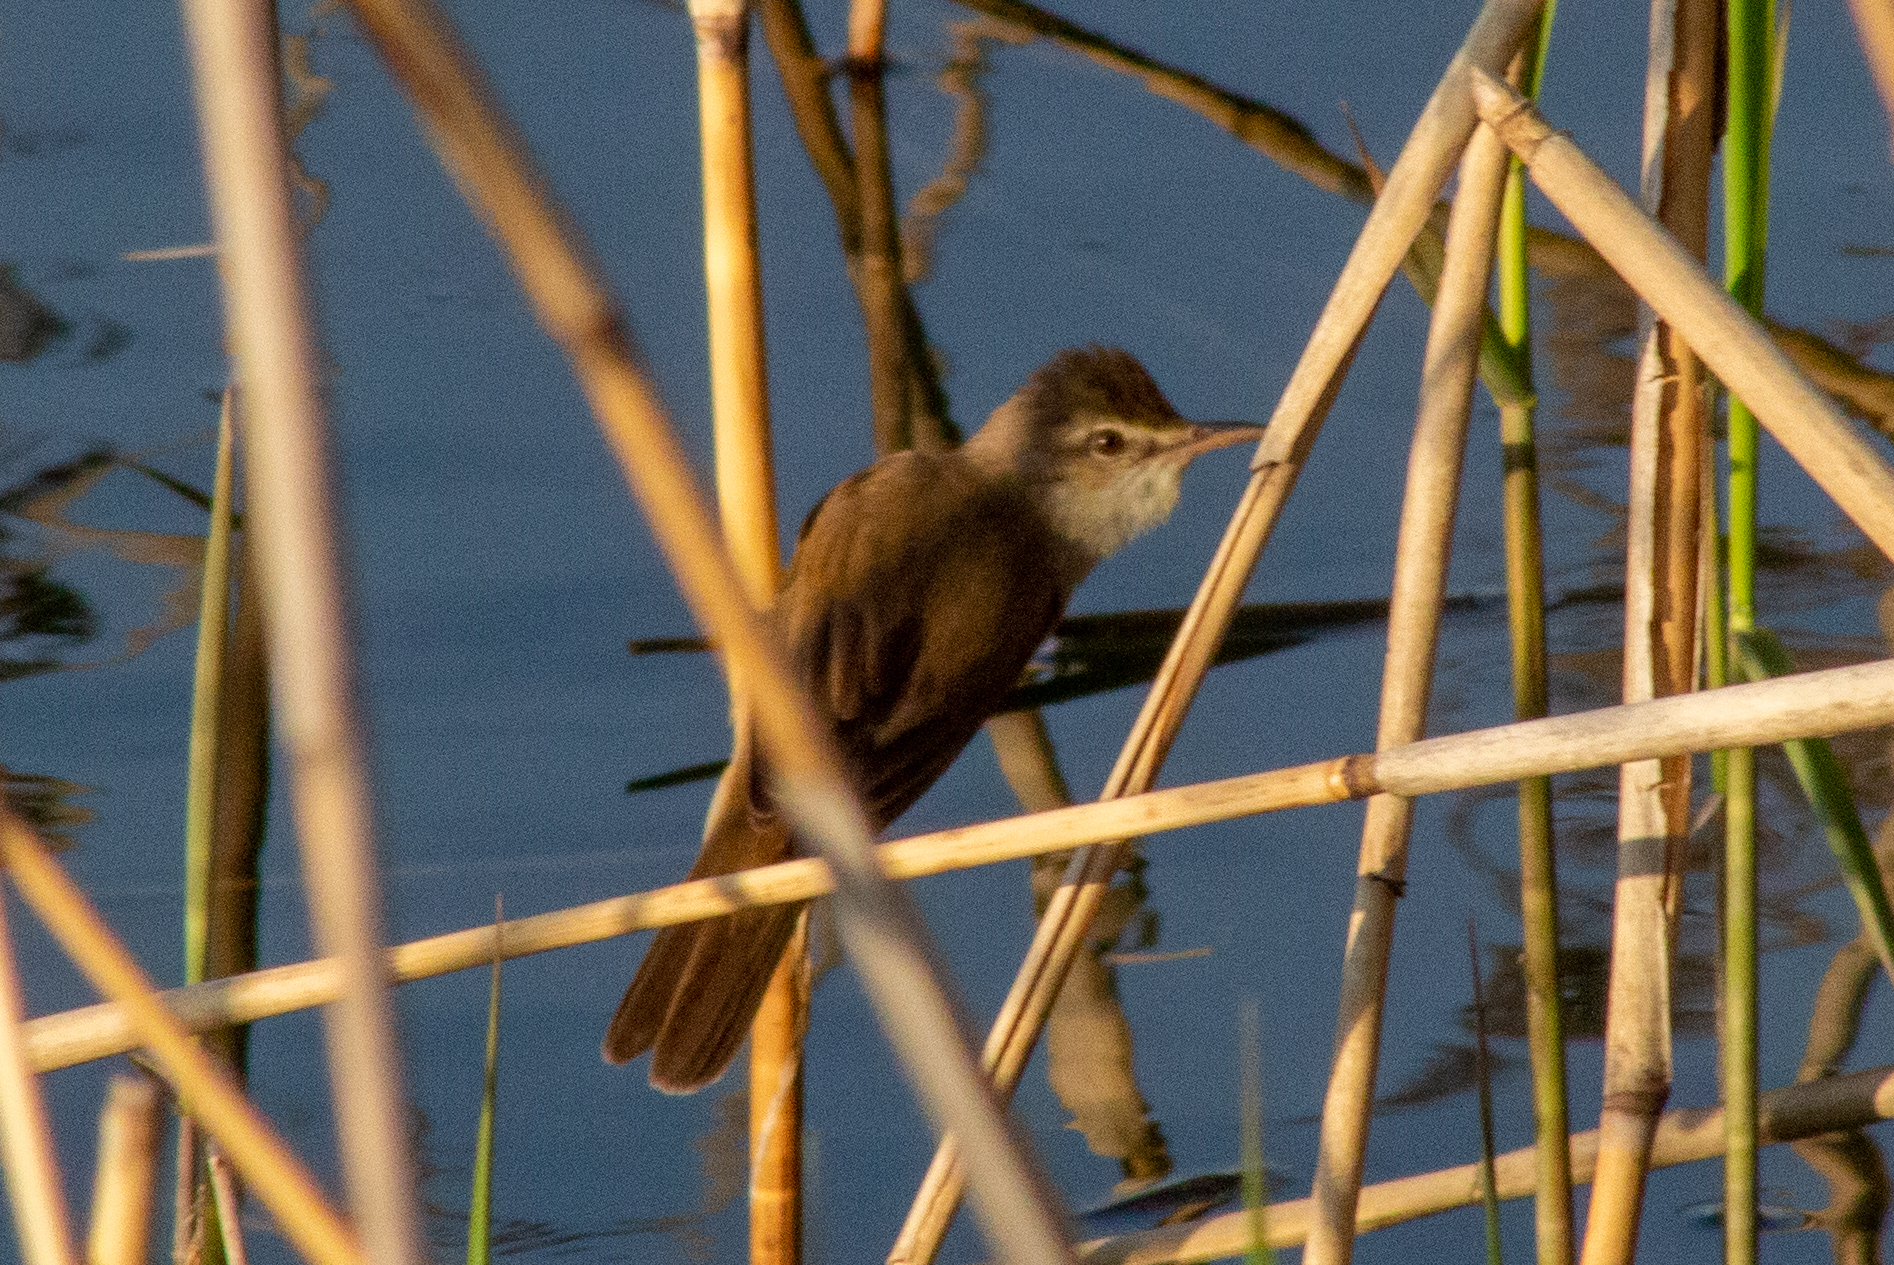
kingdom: Animalia
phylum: Chordata
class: Aves
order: Passeriformes
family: Acrocephalidae
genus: Acrocephalus
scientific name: Acrocephalus arundinaceus
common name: Great reed warbler
